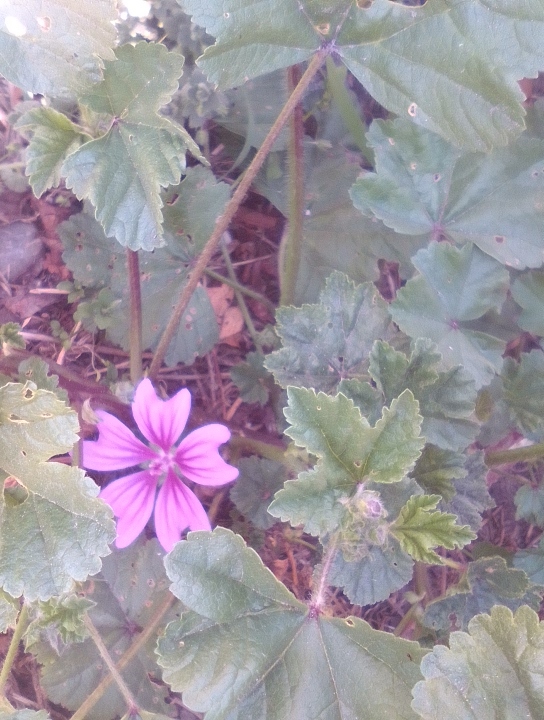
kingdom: Plantae
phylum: Tracheophyta
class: Magnoliopsida
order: Malvales
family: Malvaceae
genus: Malva
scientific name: Malva sylvestris
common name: Common mallow
